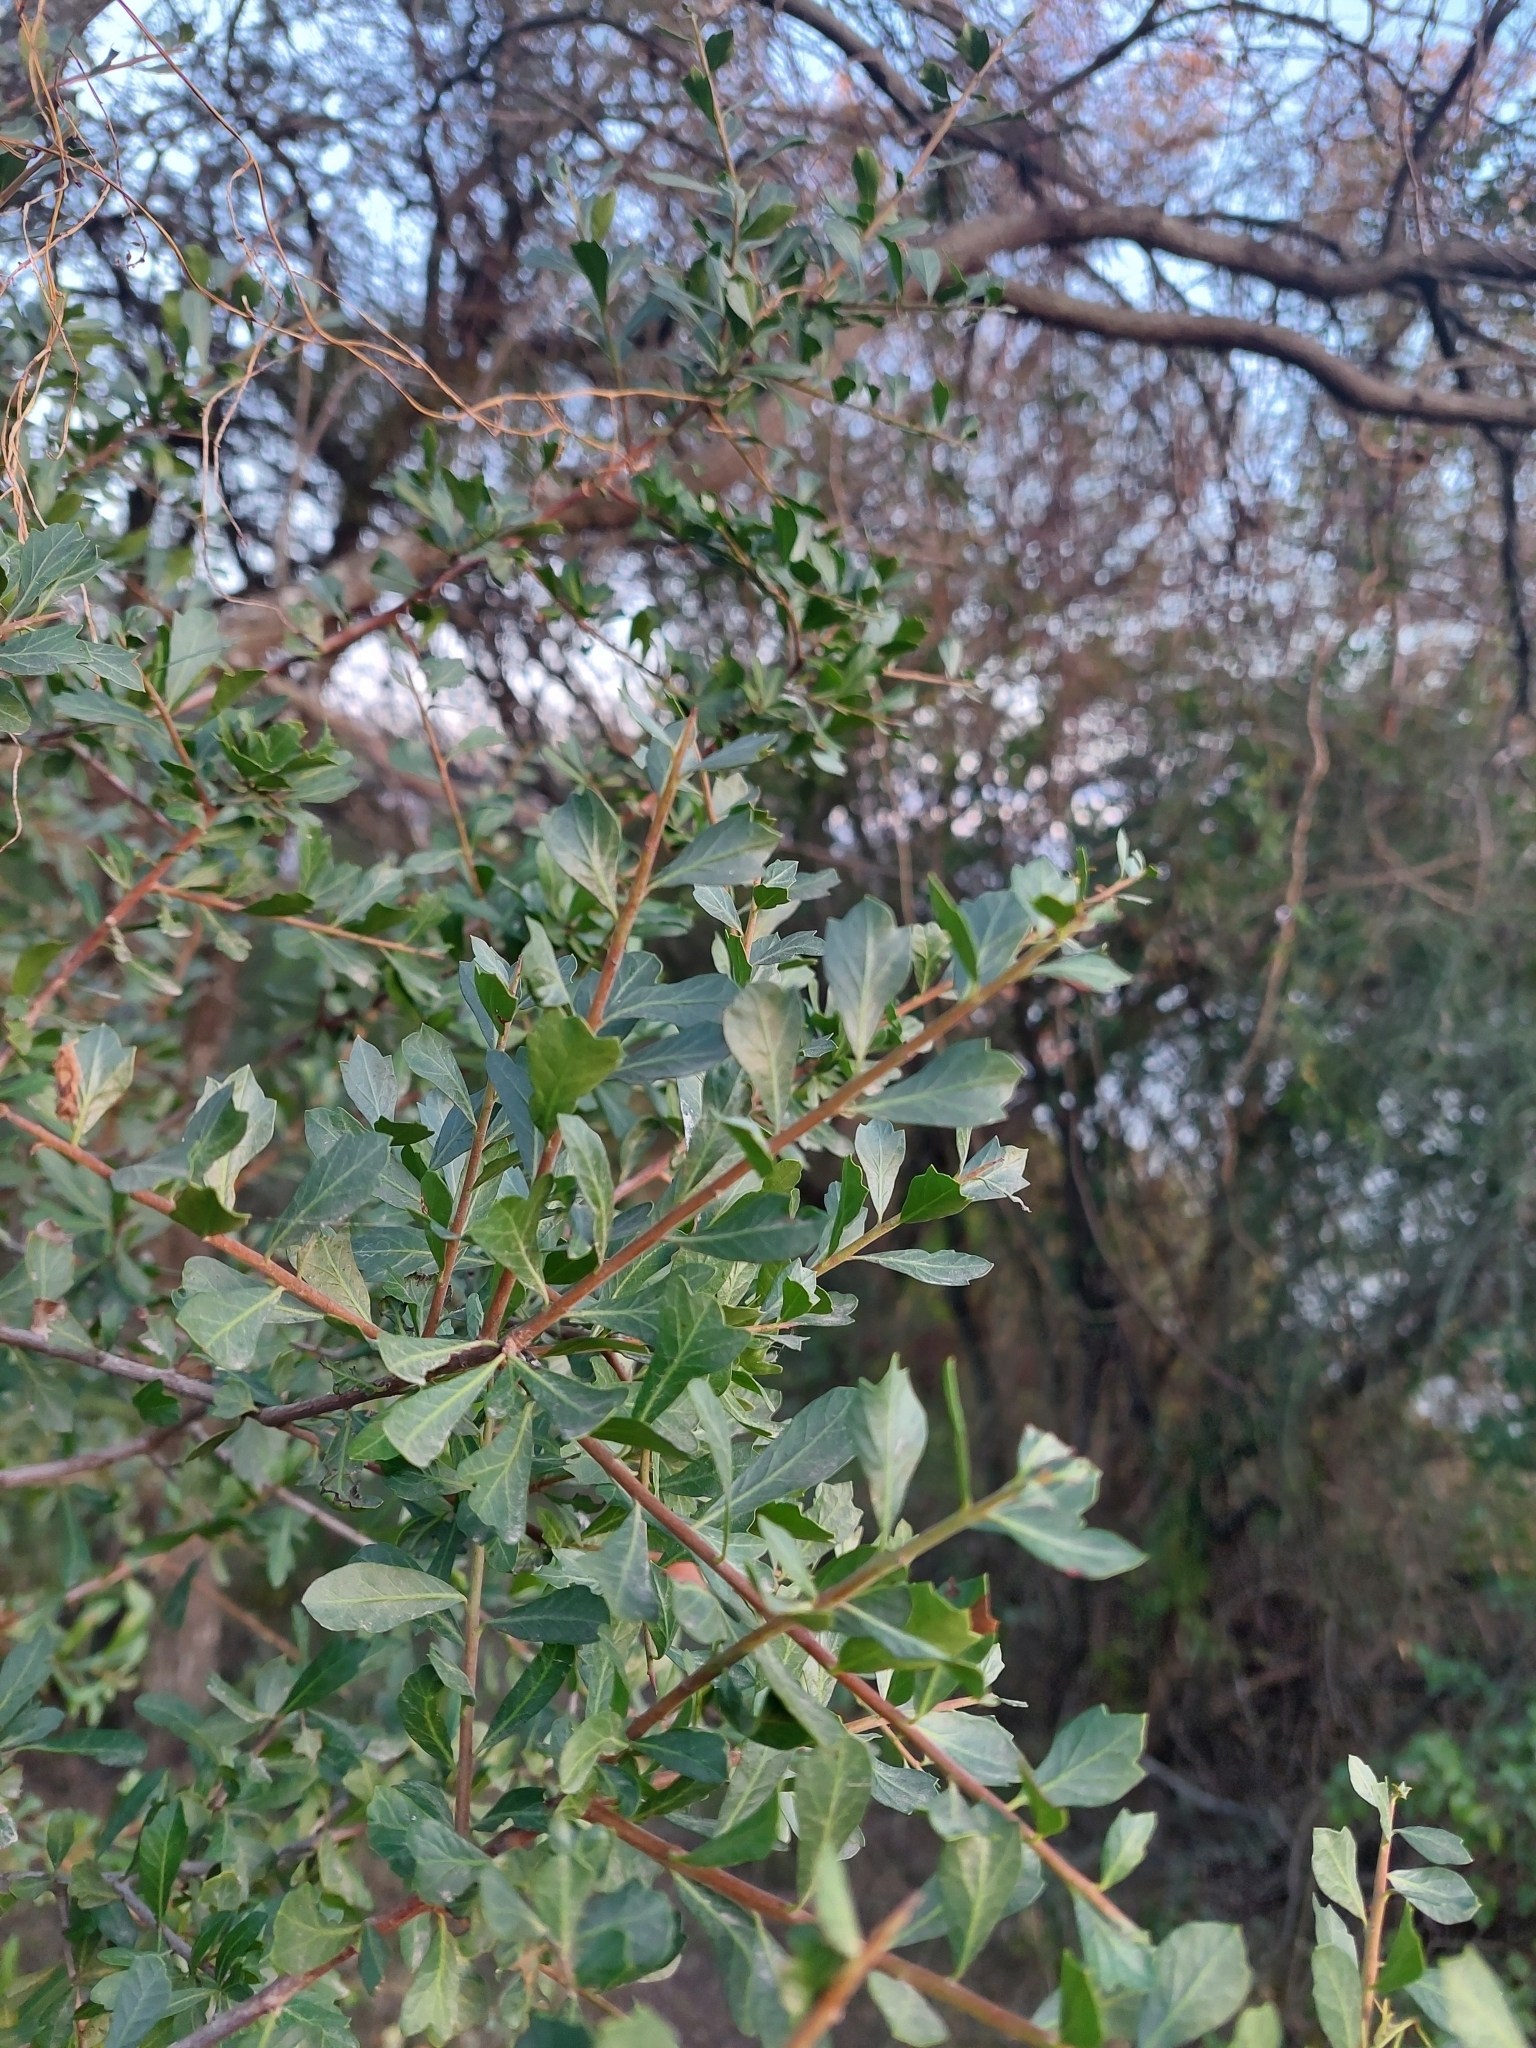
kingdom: Plantae
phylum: Tracheophyta
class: Magnoliopsida
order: Sapindales
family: Anacardiaceae
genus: Schinus
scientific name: Schinus fasciculata
